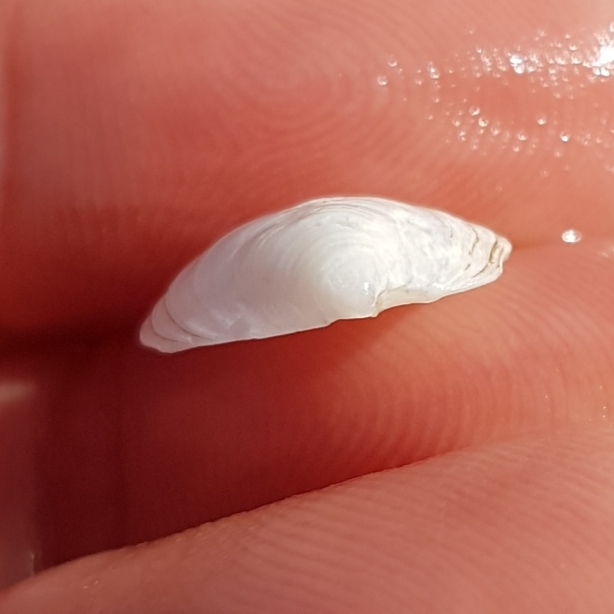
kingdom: Animalia
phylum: Mollusca
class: Bivalvia
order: Lucinida
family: Lucinidae
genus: Loripes
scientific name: Loripes orbiculatus
